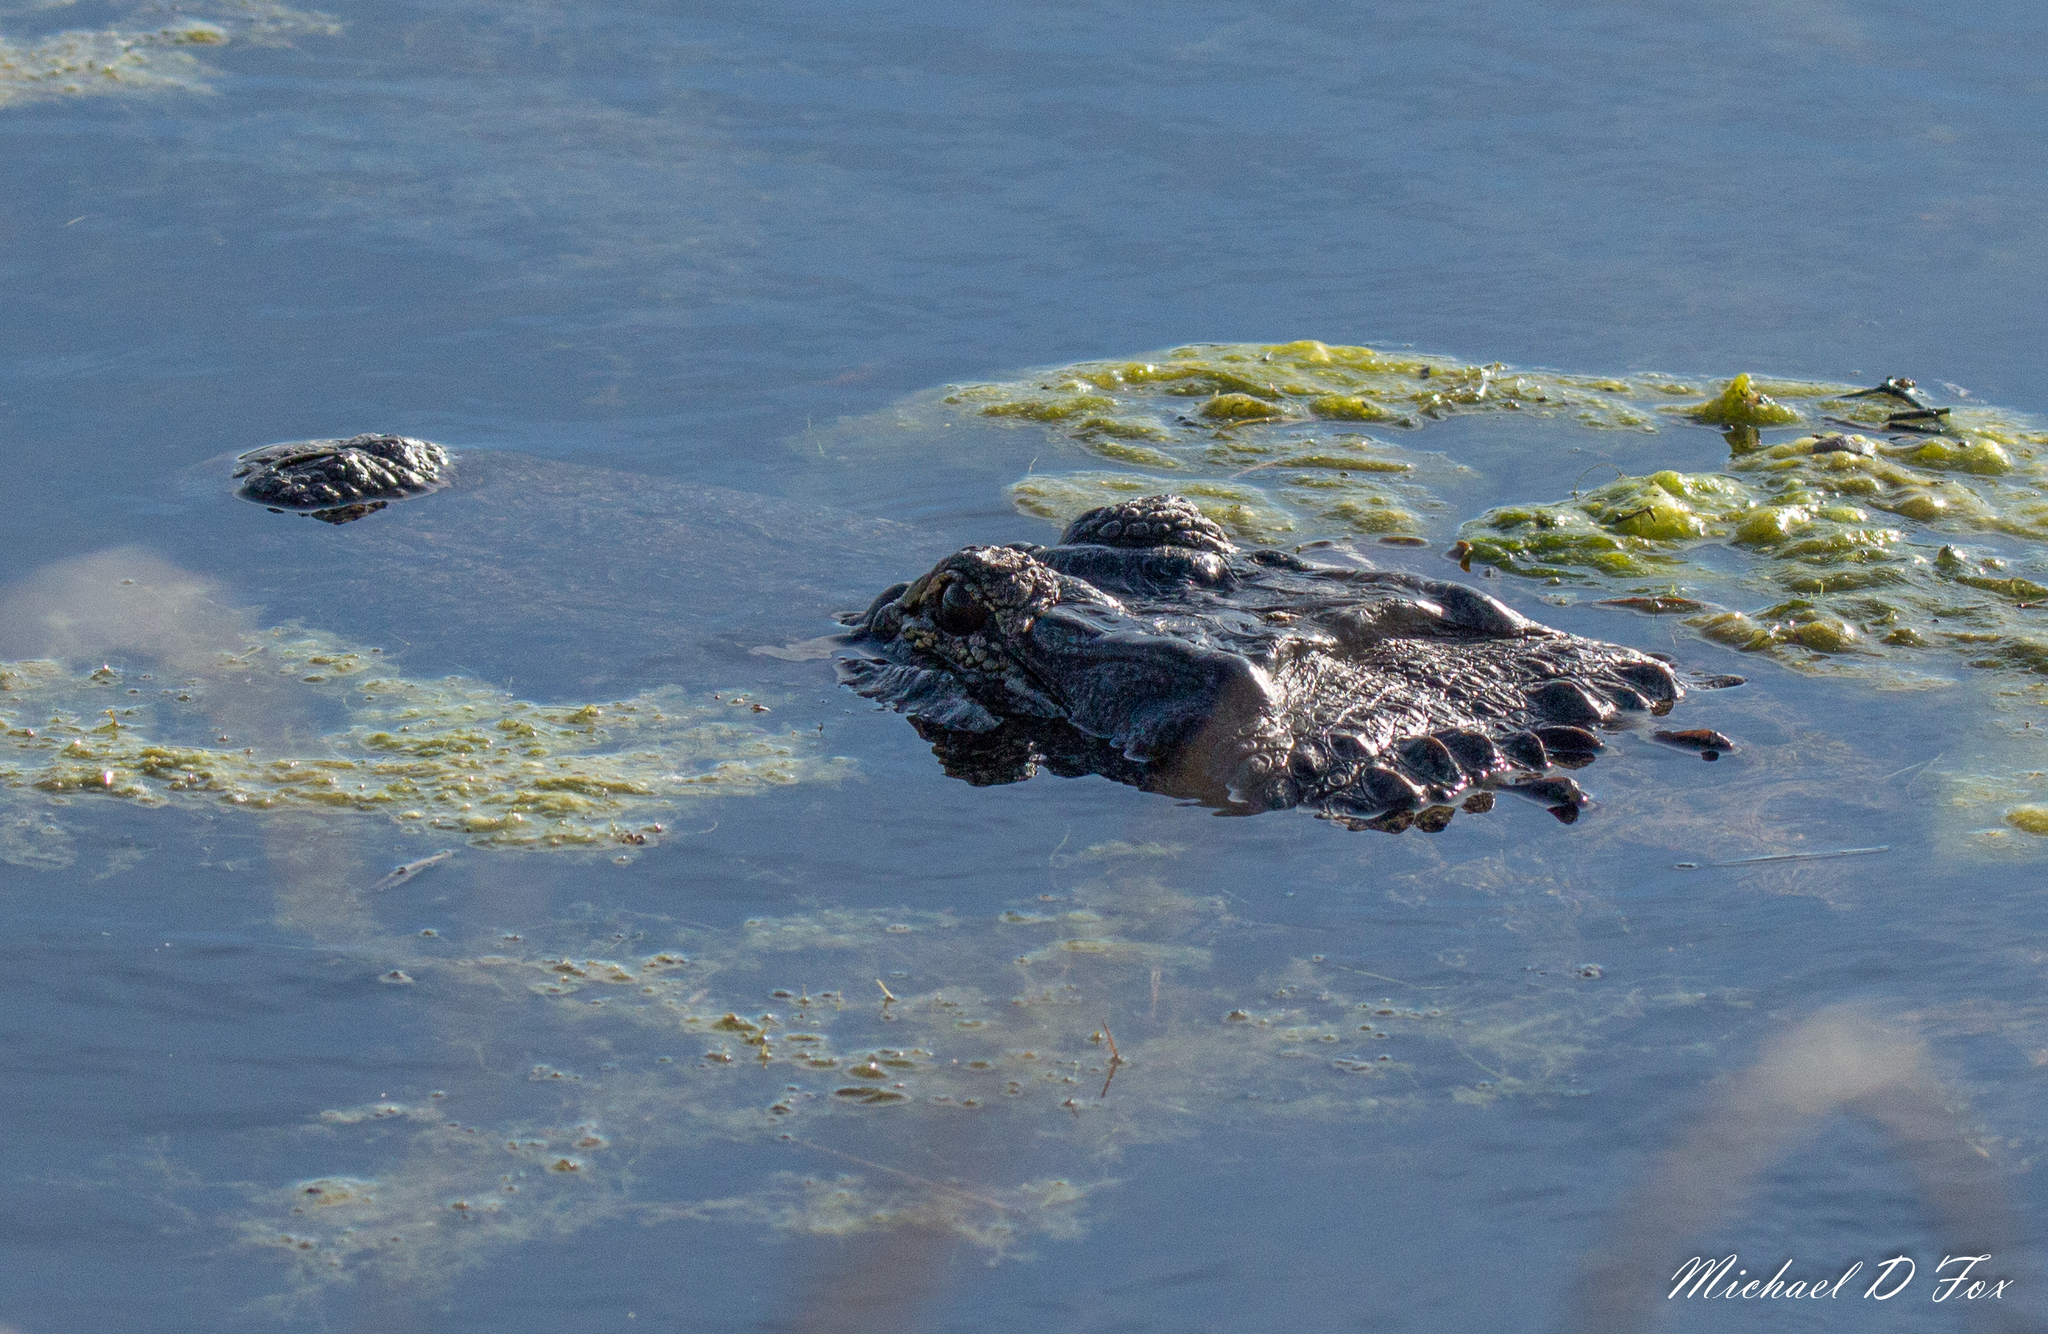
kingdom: Animalia
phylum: Chordata
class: Crocodylia
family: Alligatoridae
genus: Alligator
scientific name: Alligator mississippiensis
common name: American alligator
